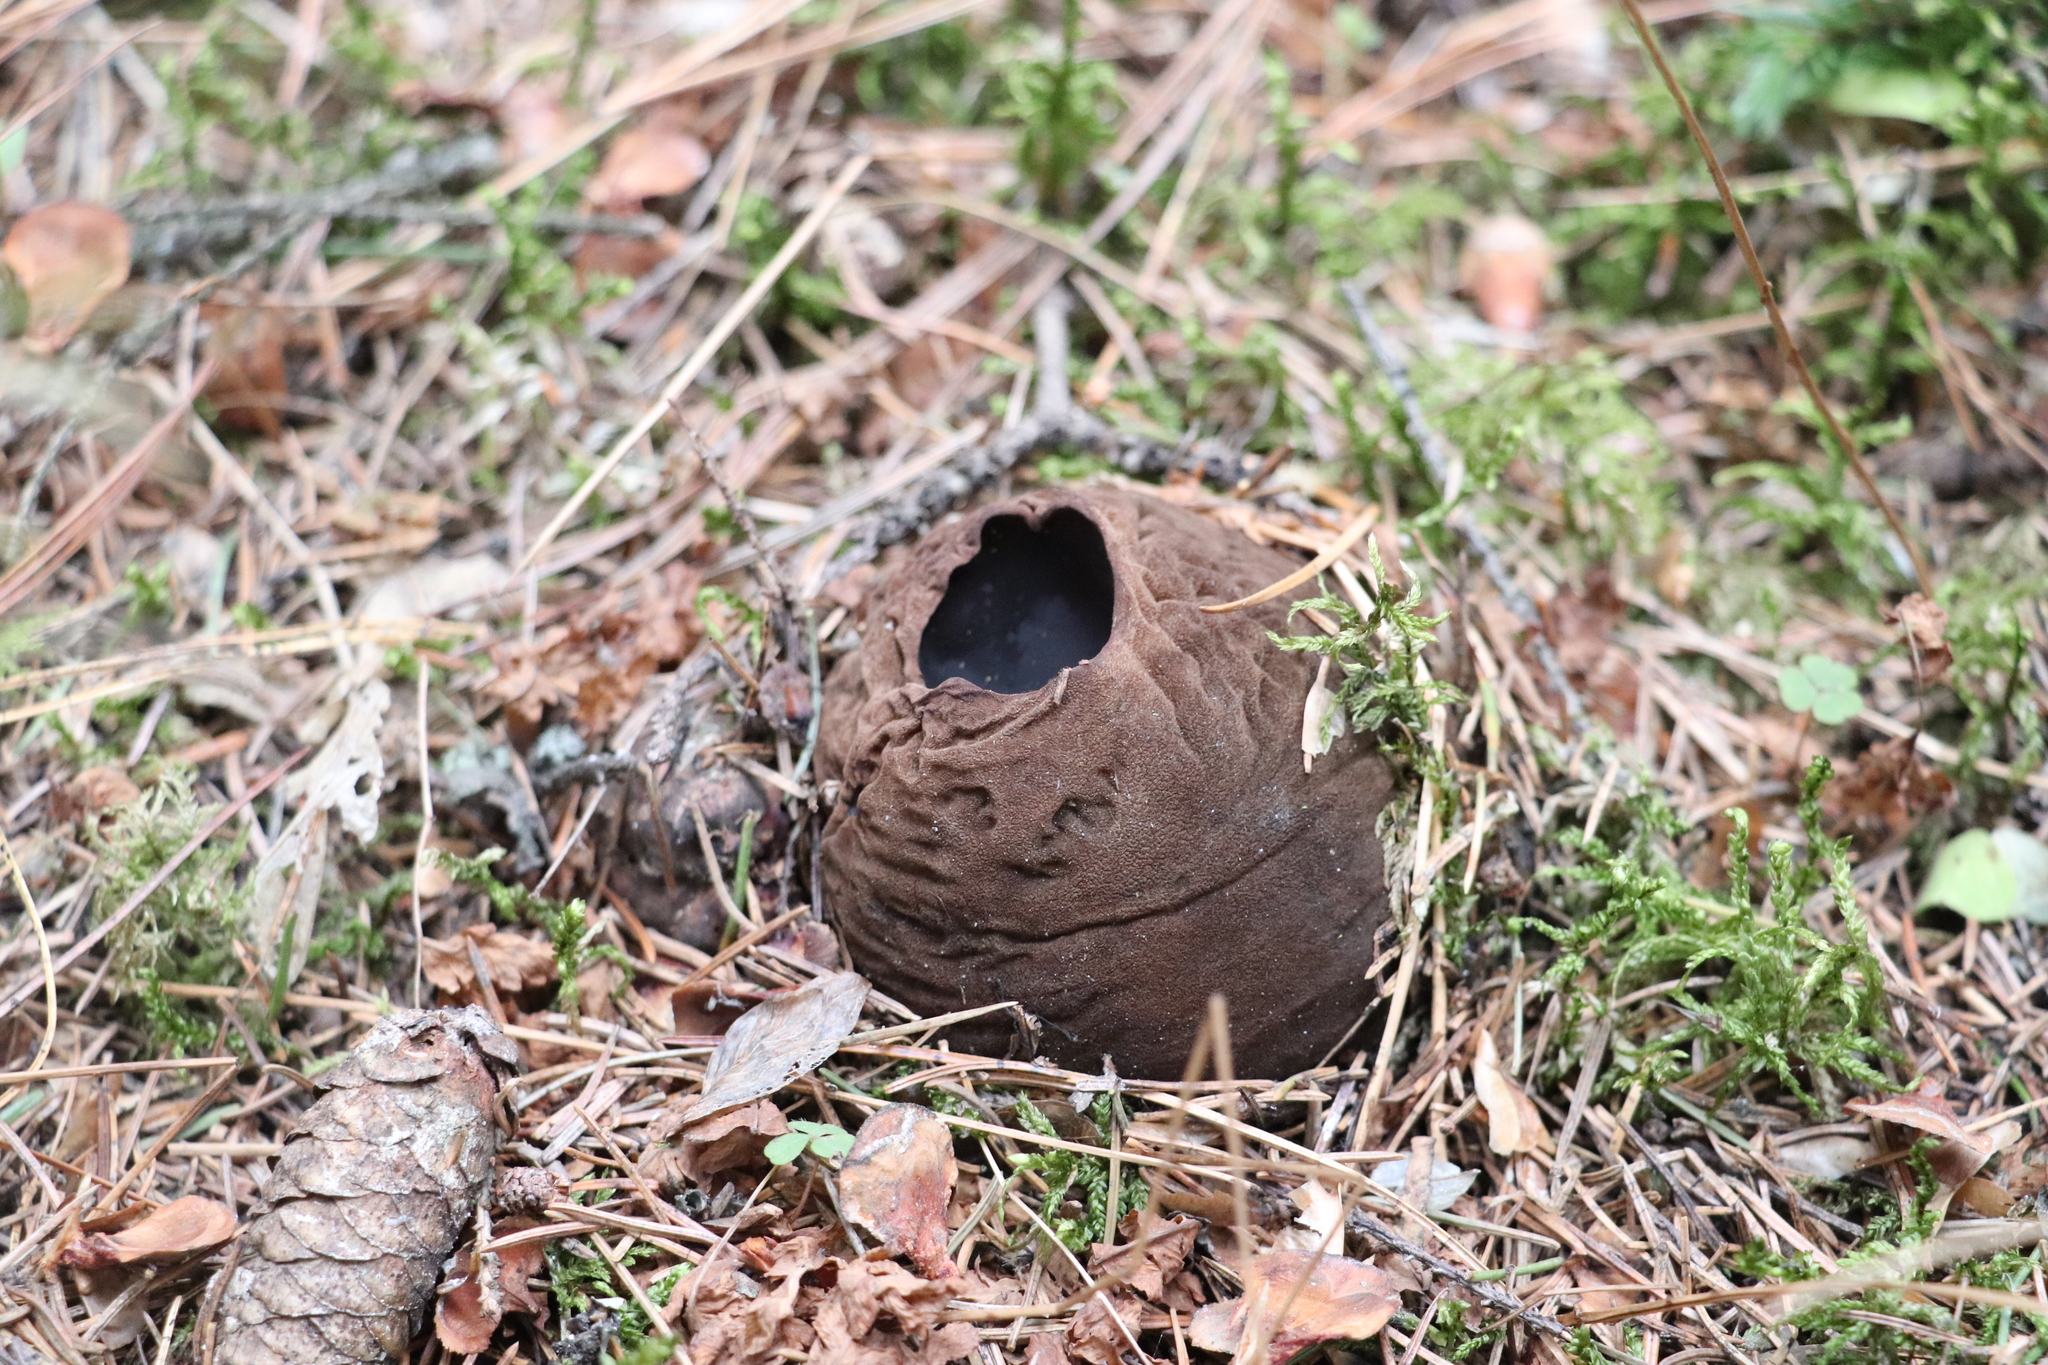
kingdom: Fungi
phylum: Ascomycota
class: Pezizomycetes
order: Pezizales
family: Sarcosomataceae
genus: Sarcosoma
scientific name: Sarcosoma globosum
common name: Charred-pancake cup
